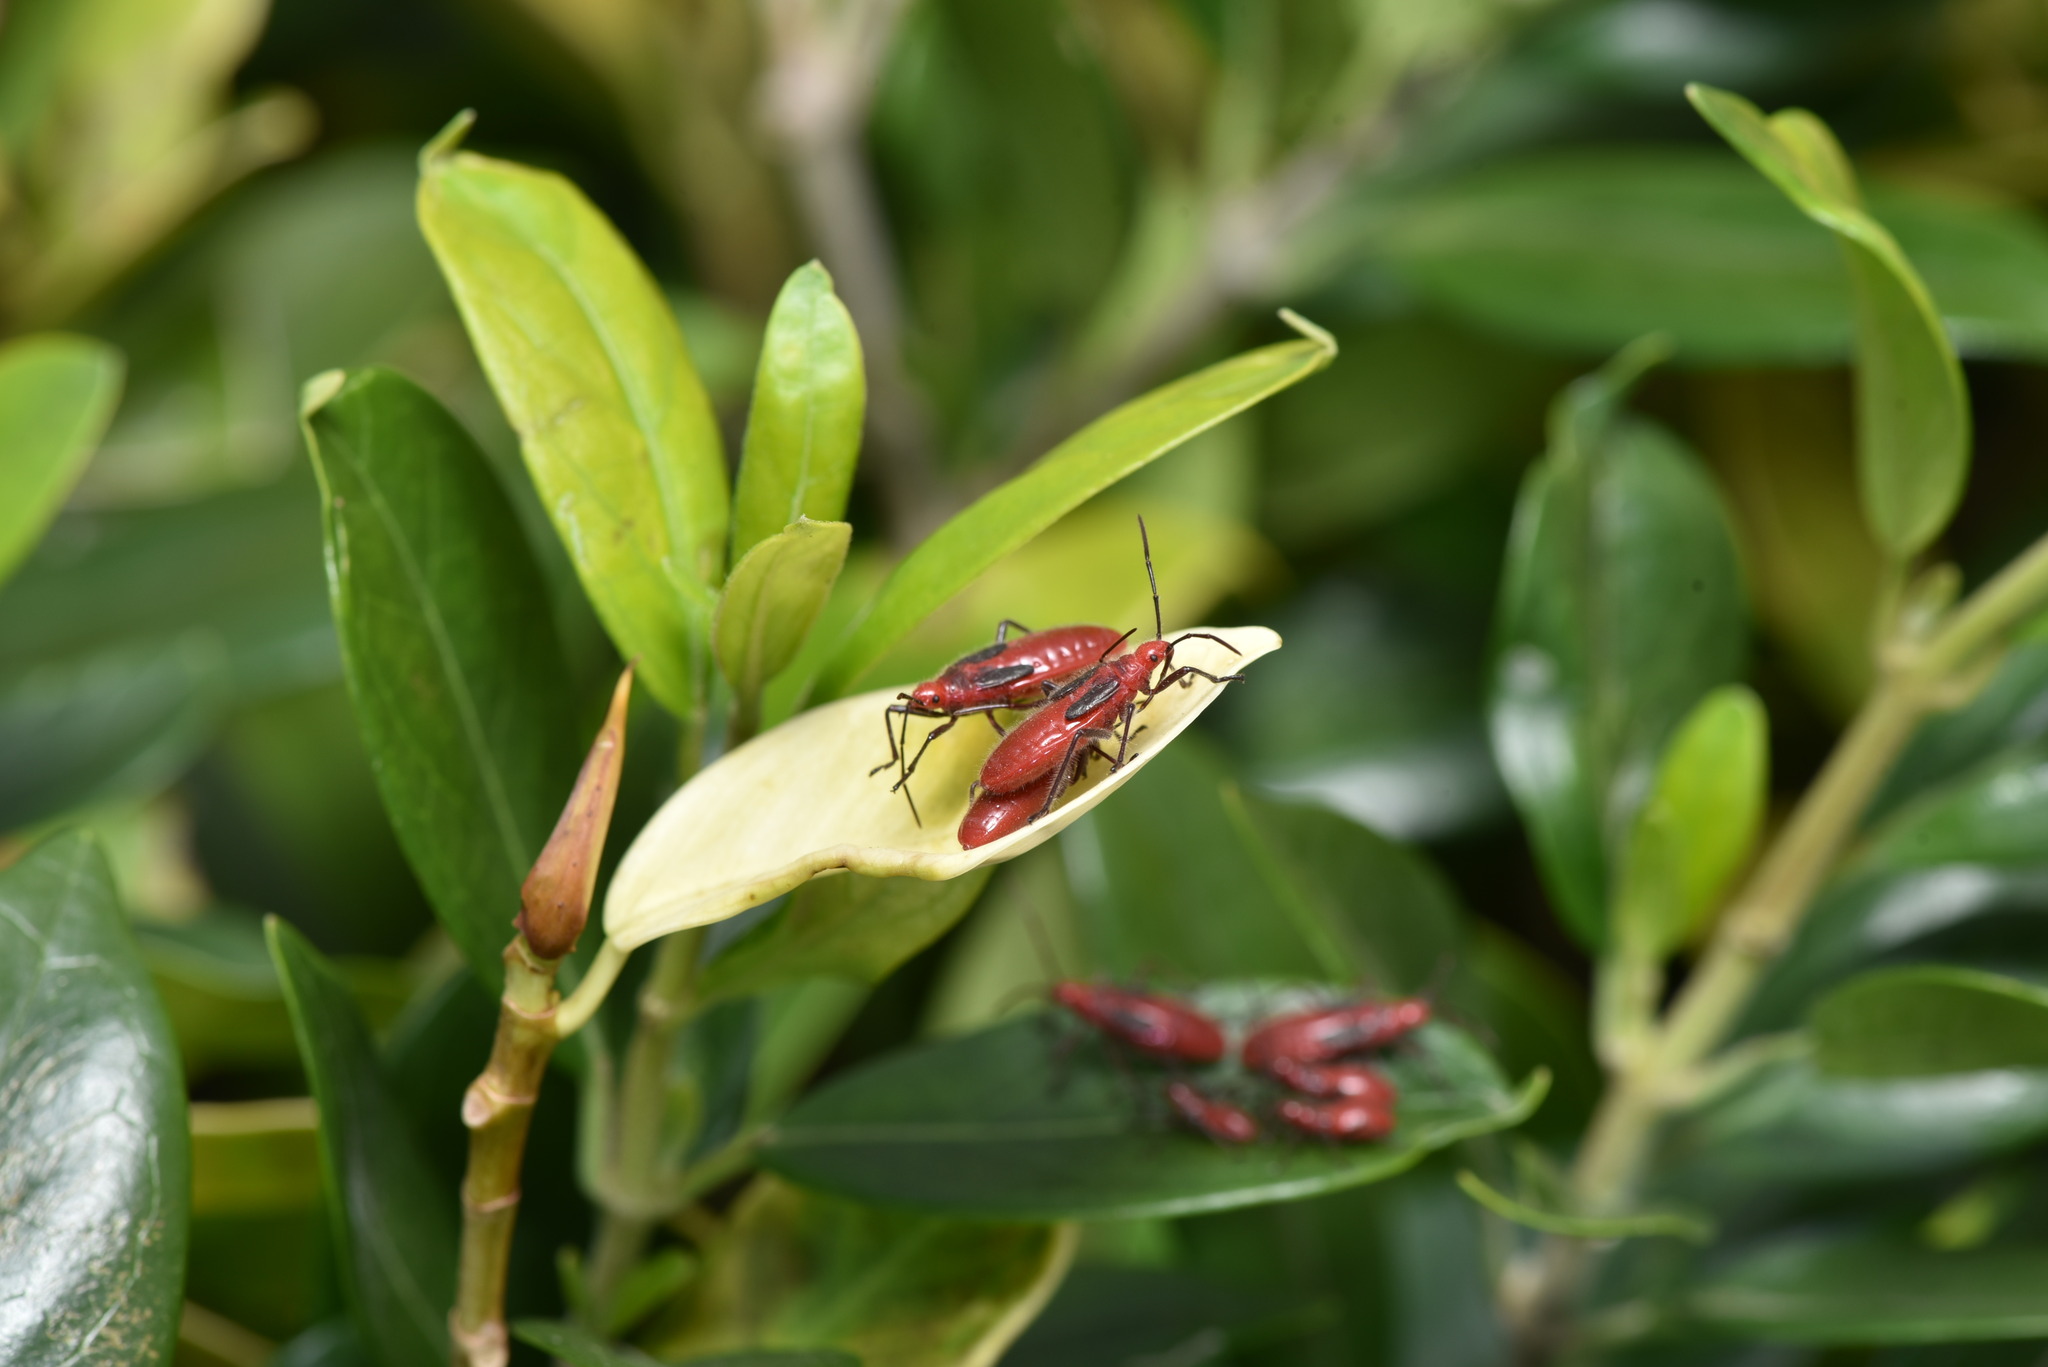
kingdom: Animalia
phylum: Arthropoda
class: Insecta
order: Hemiptera
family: Lygaeidae
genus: Thunbergia
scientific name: Thunbergia marginatus
